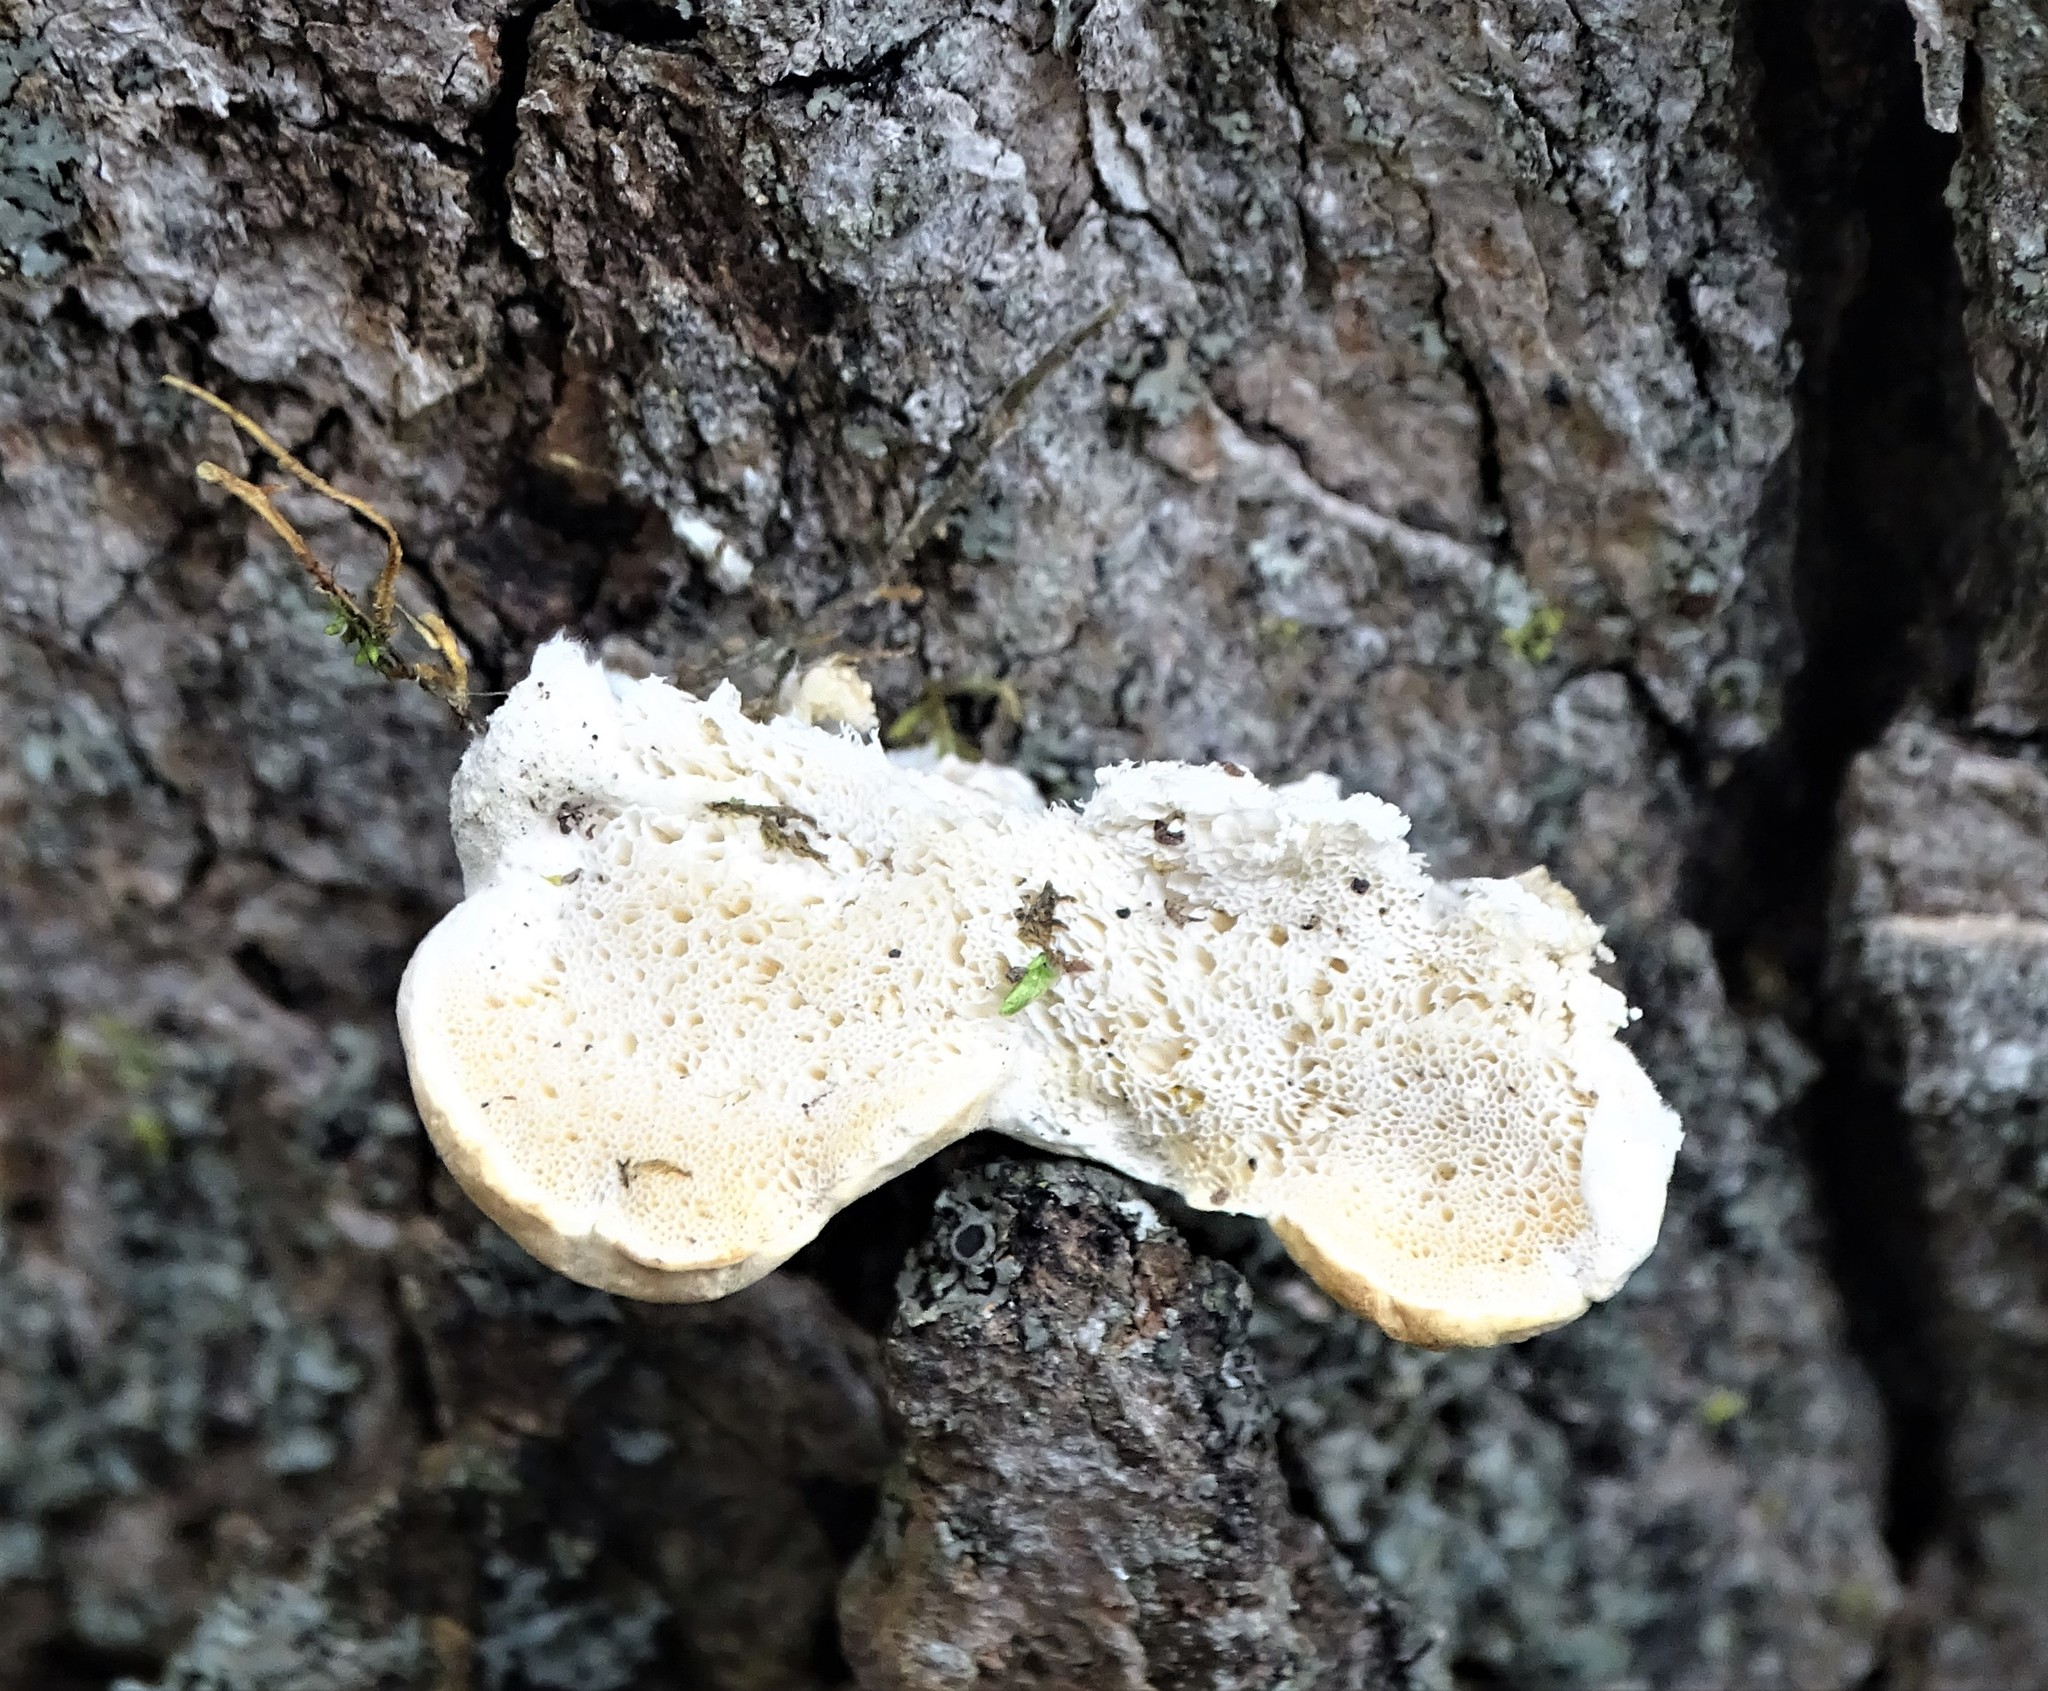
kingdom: Fungi
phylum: Basidiomycota
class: Agaricomycetes
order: Hymenochaetales
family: Oxyporaceae
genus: Oxyporus
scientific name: Oxyporus populinus
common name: Poplar bracket
